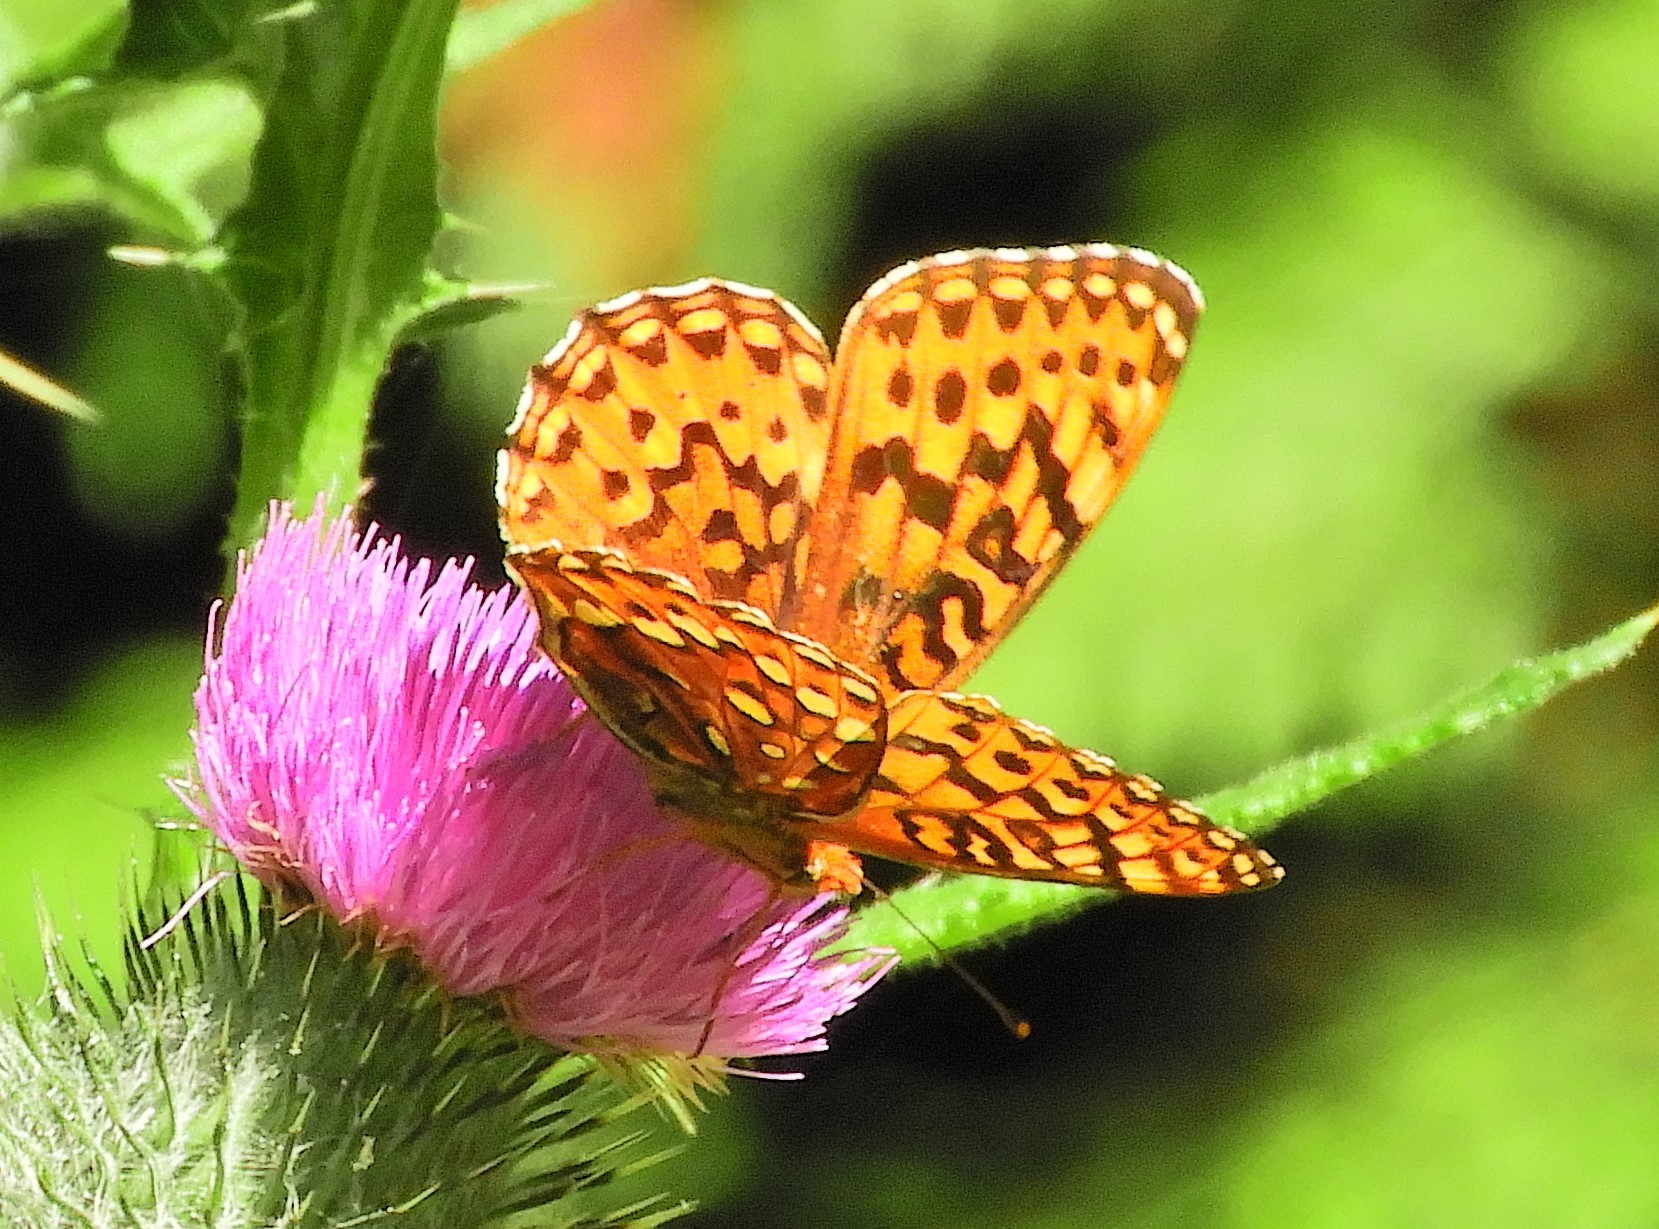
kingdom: Animalia
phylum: Arthropoda
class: Insecta
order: Lepidoptera
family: Nymphalidae
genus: Speyeria
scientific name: Speyeria hydaspe
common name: Hydaspe fritillary
